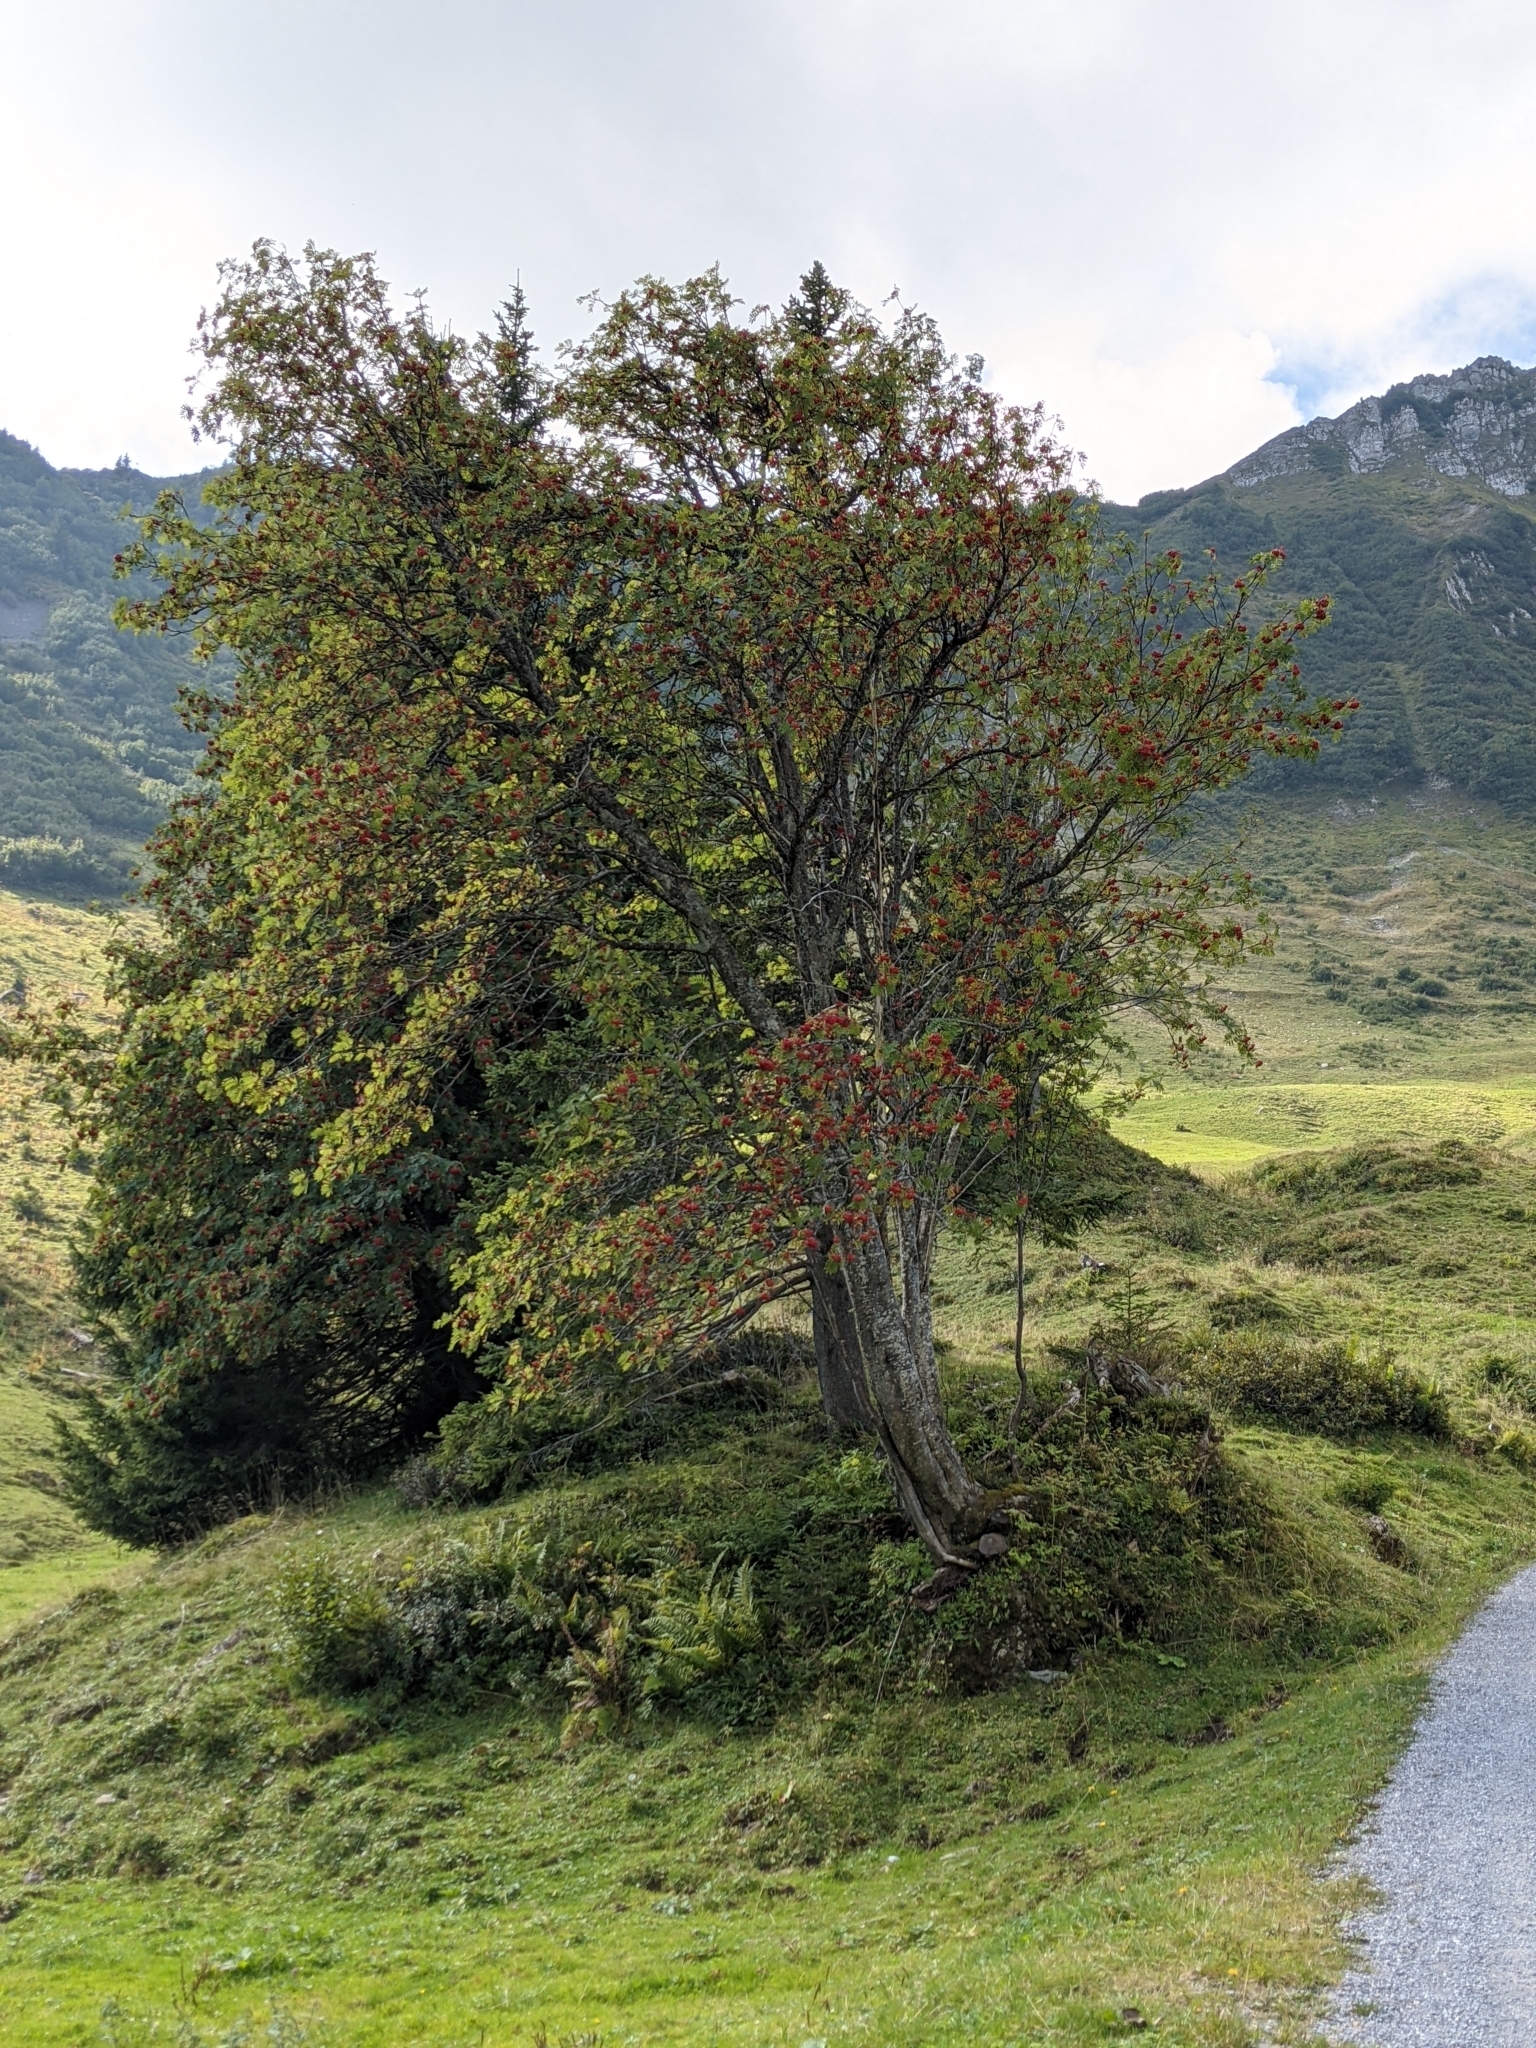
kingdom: Plantae
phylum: Tracheophyta
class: Magnoliopsida
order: Rosales
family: Rosaceae
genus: Sorbus
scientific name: Sorbus aucuparia
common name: Rowan
